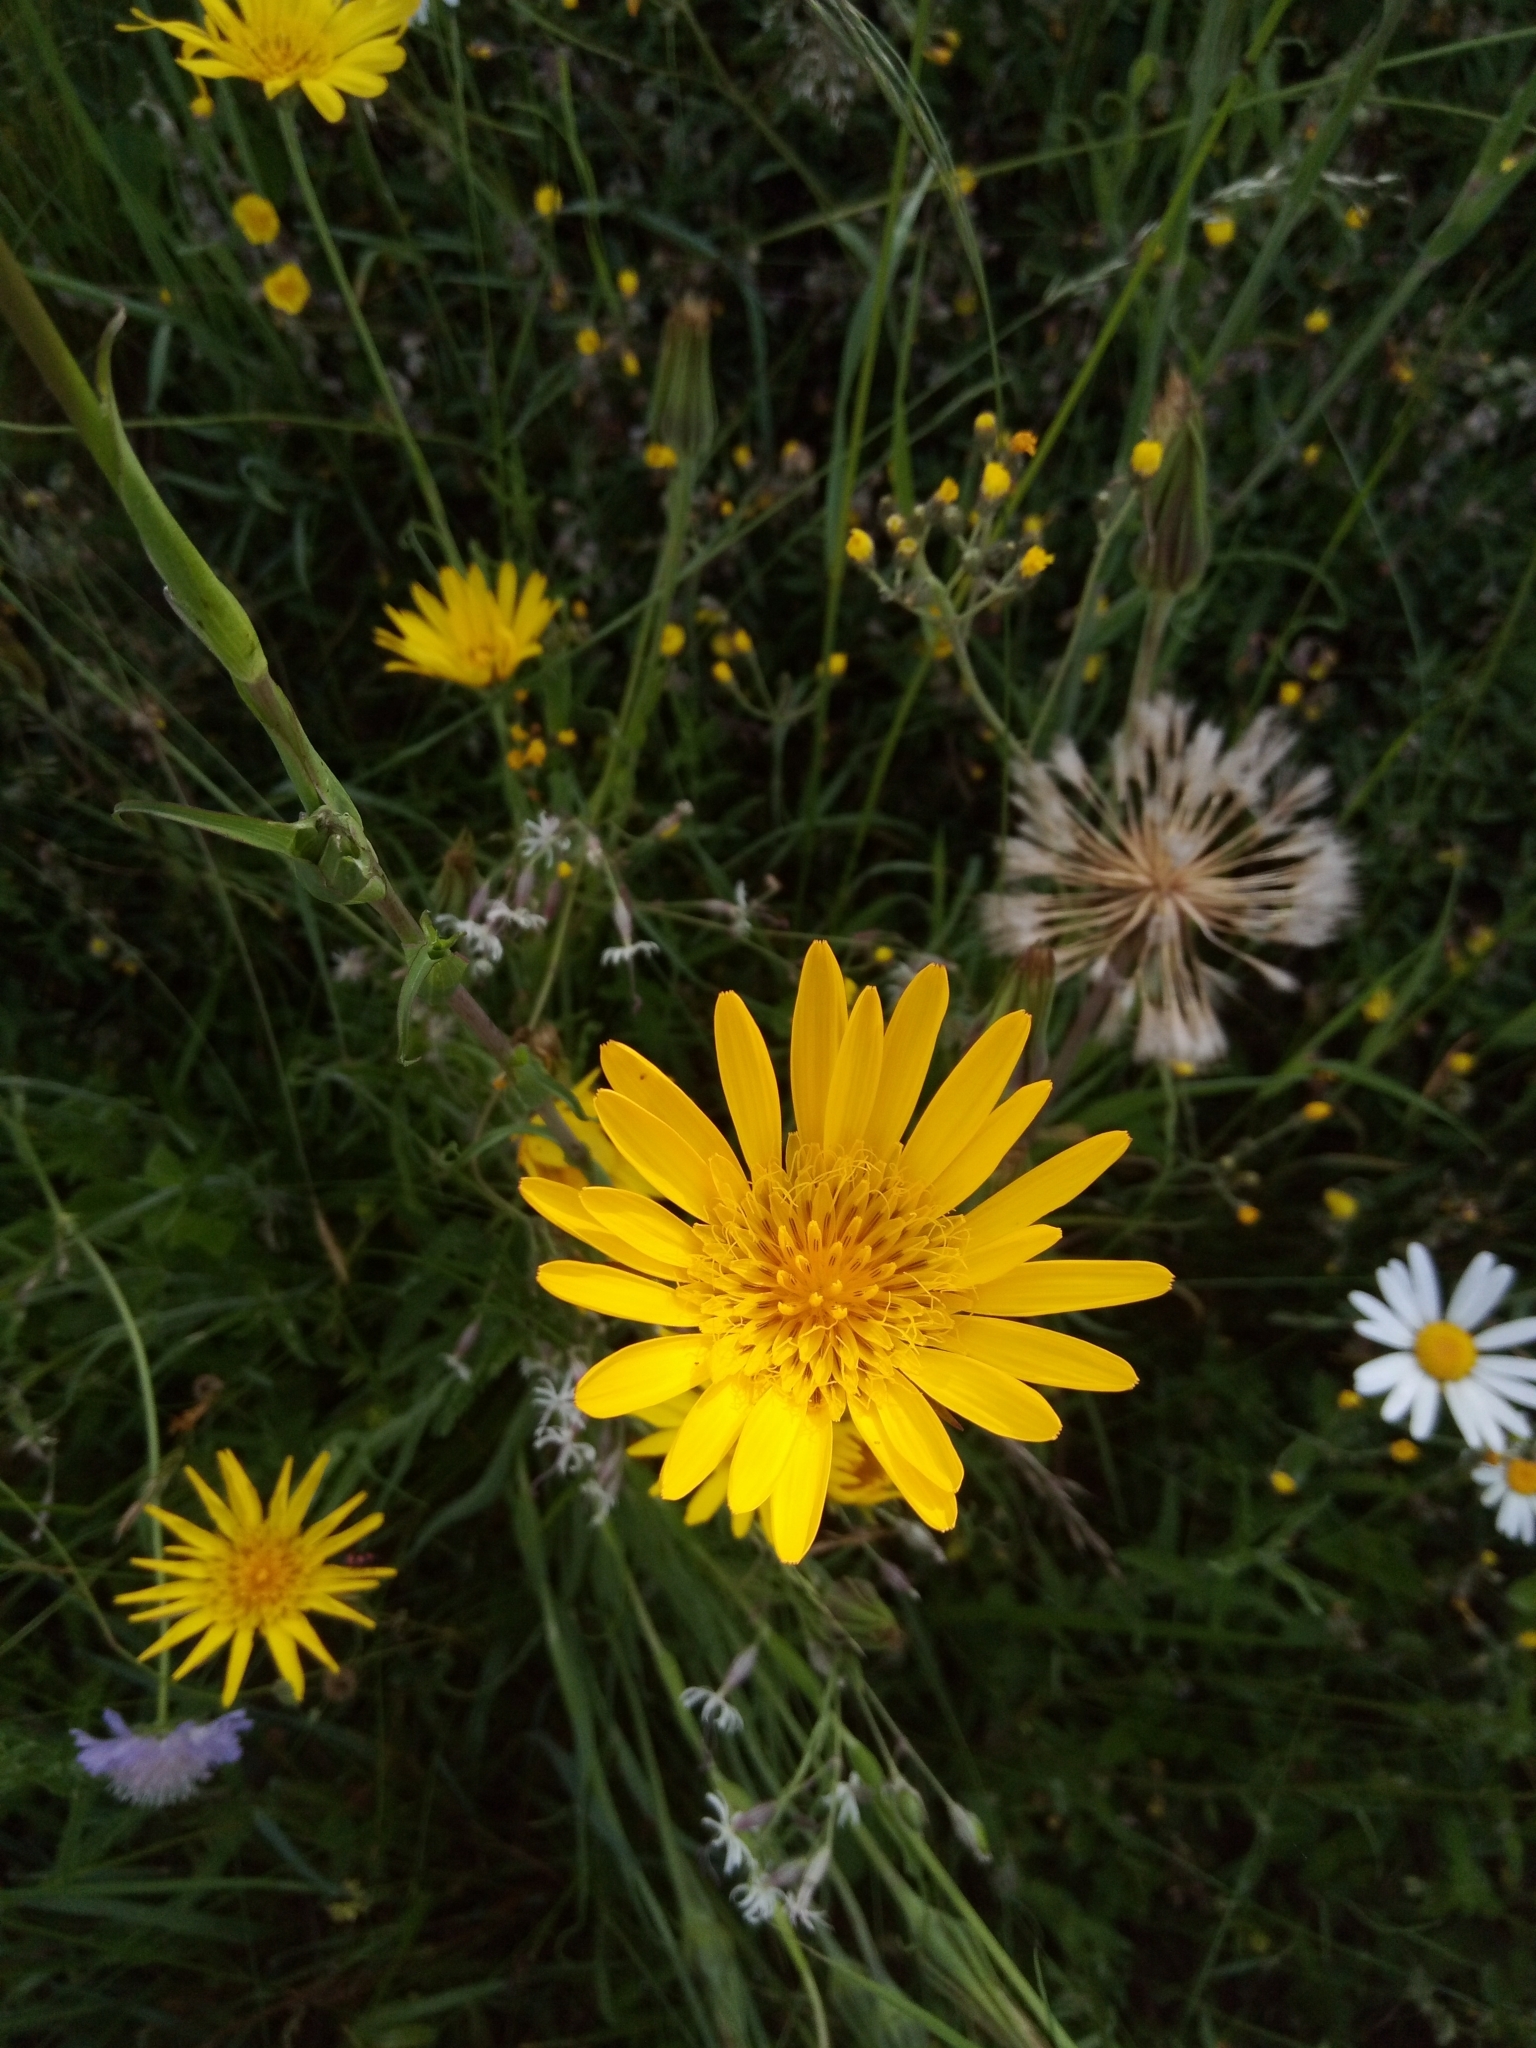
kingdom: Plantae
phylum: Tracheophyta
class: Magnoliopsida
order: Asterales
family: Asteraceae
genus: Tragopogon
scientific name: Tragopogon orientalis
